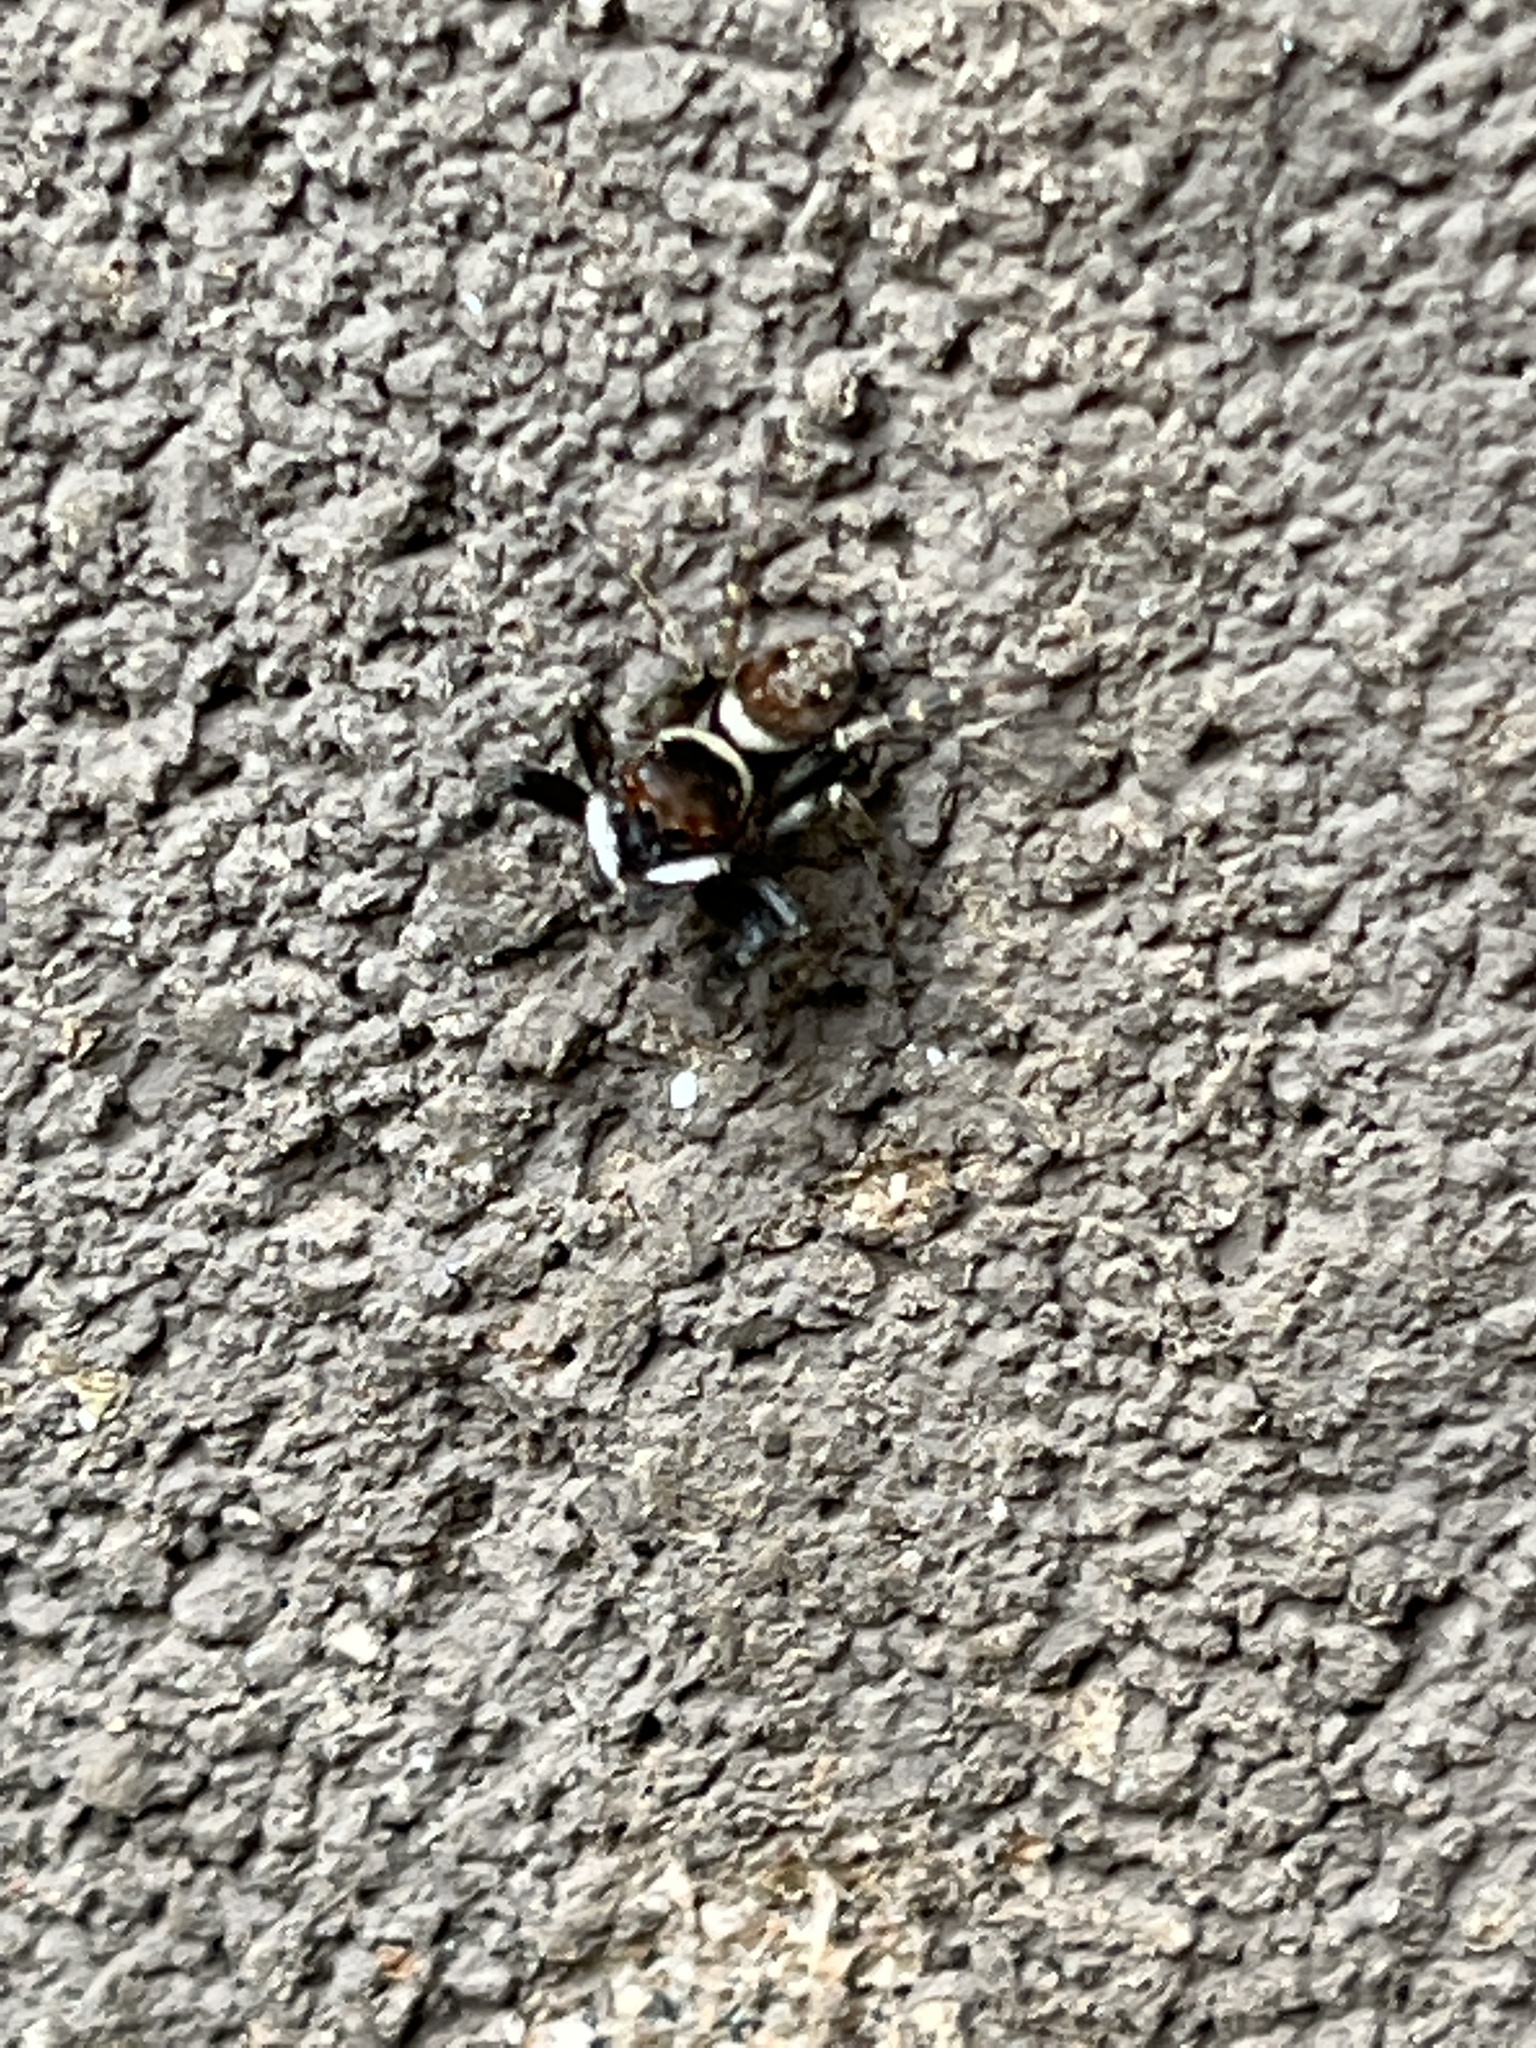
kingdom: Animalia
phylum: Arthropoda
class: Arachnida
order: Araneae
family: Salticidae
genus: Hasarius
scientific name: Hasarius adansoni
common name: Jumping spider
